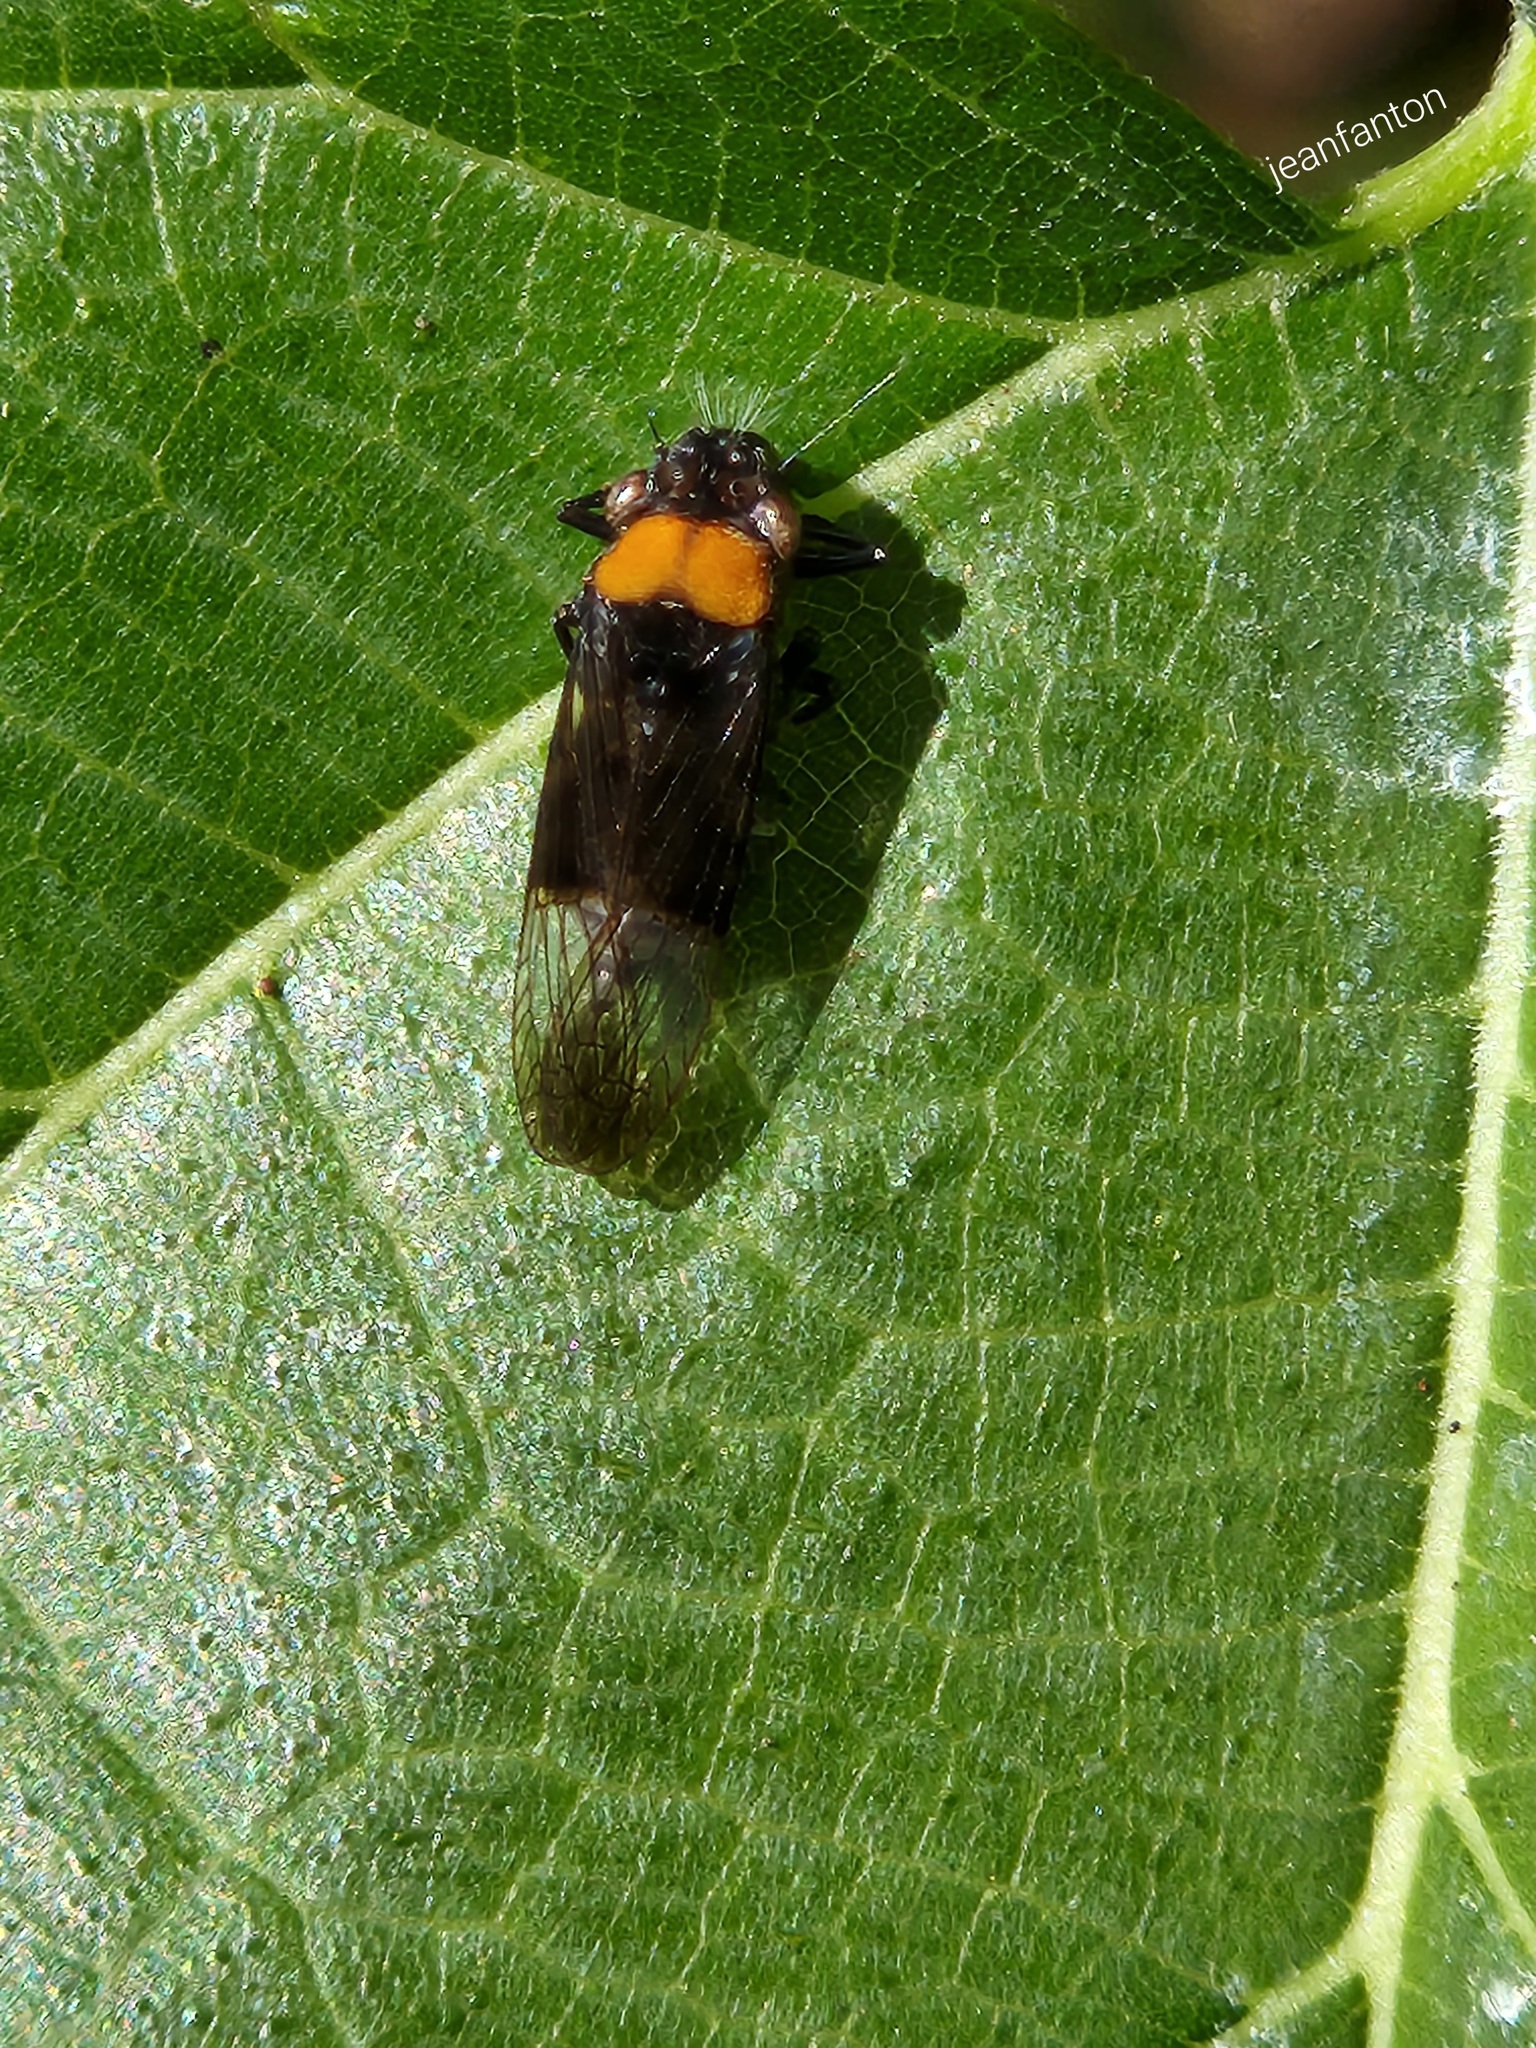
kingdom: Animalia
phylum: Arthropoda
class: Insecta
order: Hemiptera
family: Cicadellidae
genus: Teletusa
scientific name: Teletusa limpida
